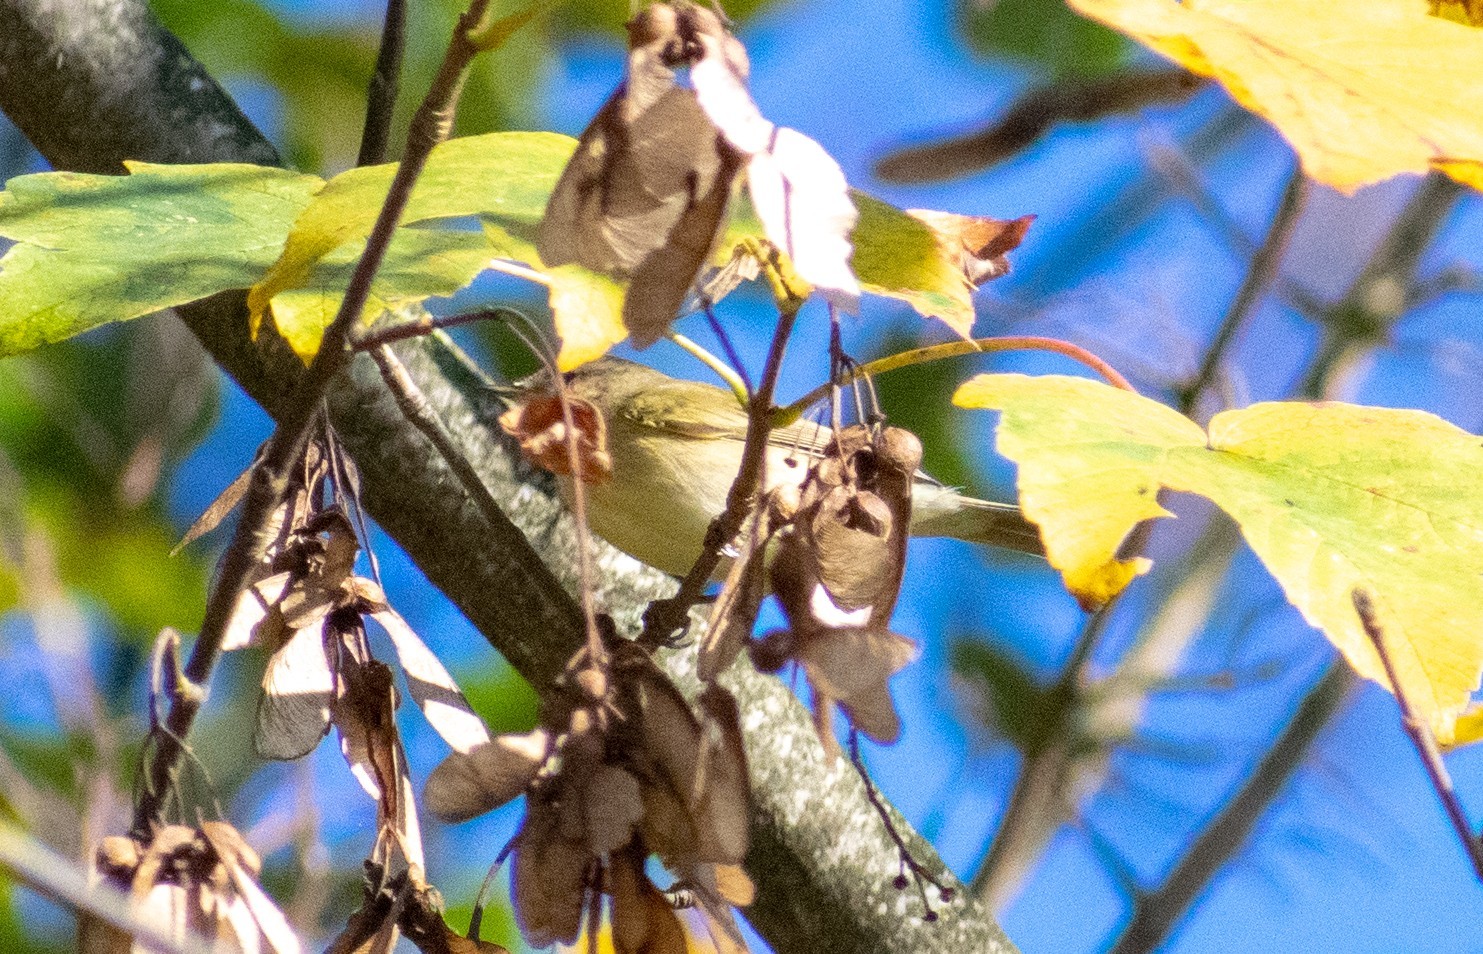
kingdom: Animalia
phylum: Chordata
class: Aves
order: Passeriformes
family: Phylloscopidae
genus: Phylloscopus
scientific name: Phylloscopus collybita
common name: Common chiffchaff
